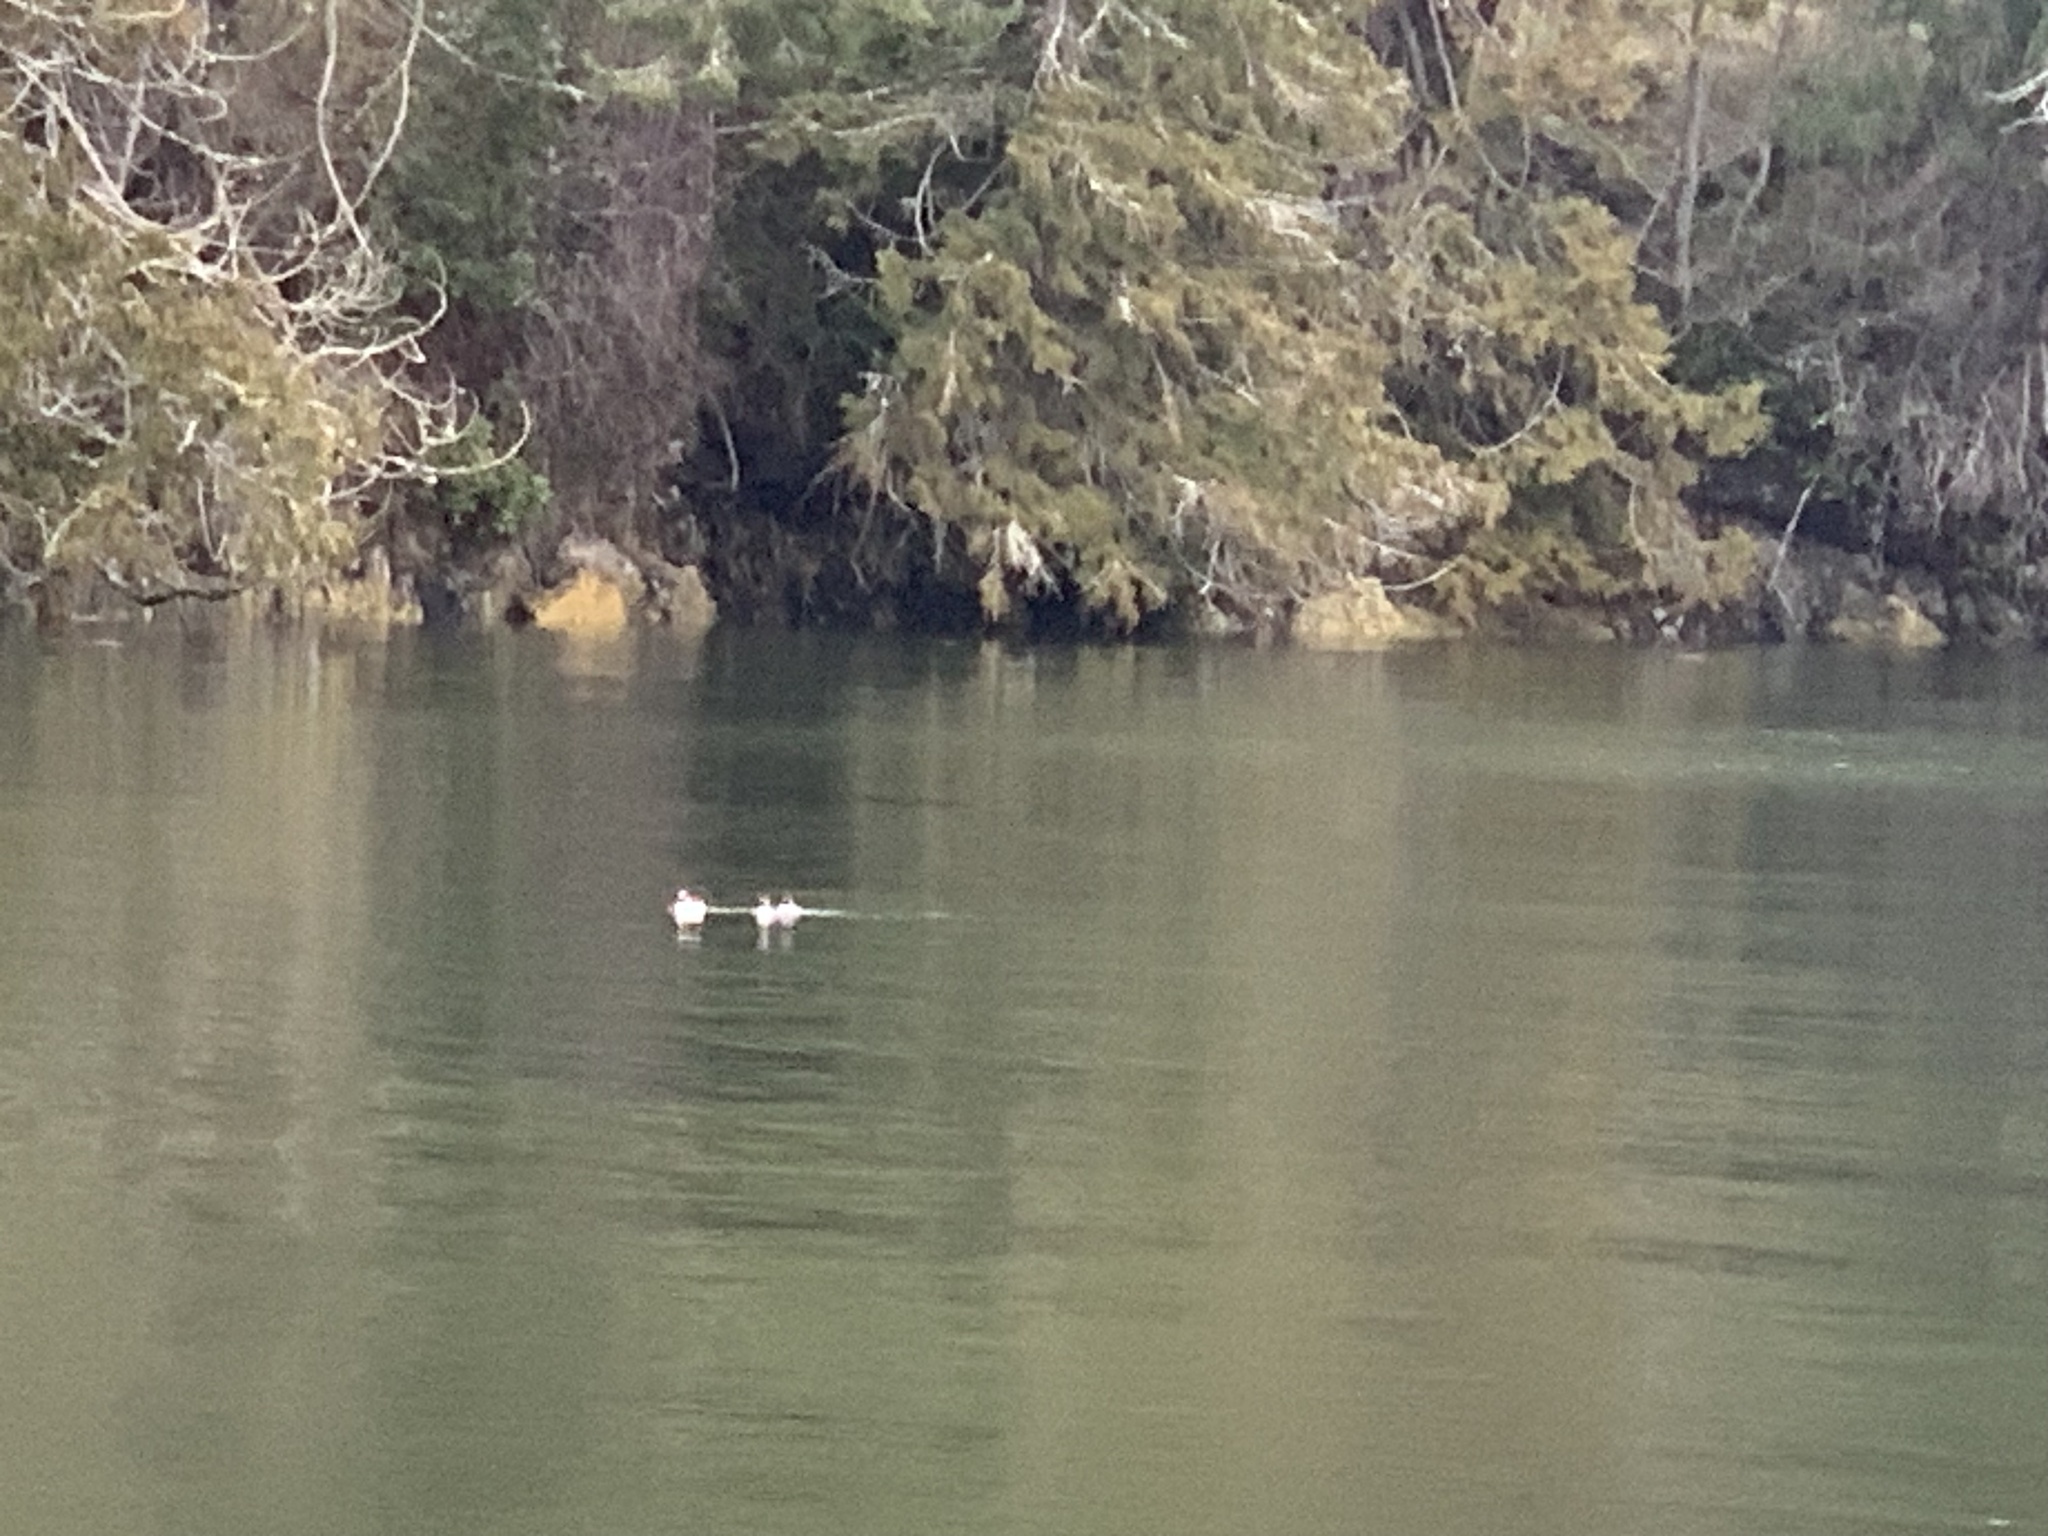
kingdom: Animalia
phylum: Chordata
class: Aves
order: Anseriformes
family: Anatidae
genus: Bucephala
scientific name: Bucephala albeola
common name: Bufflehead
